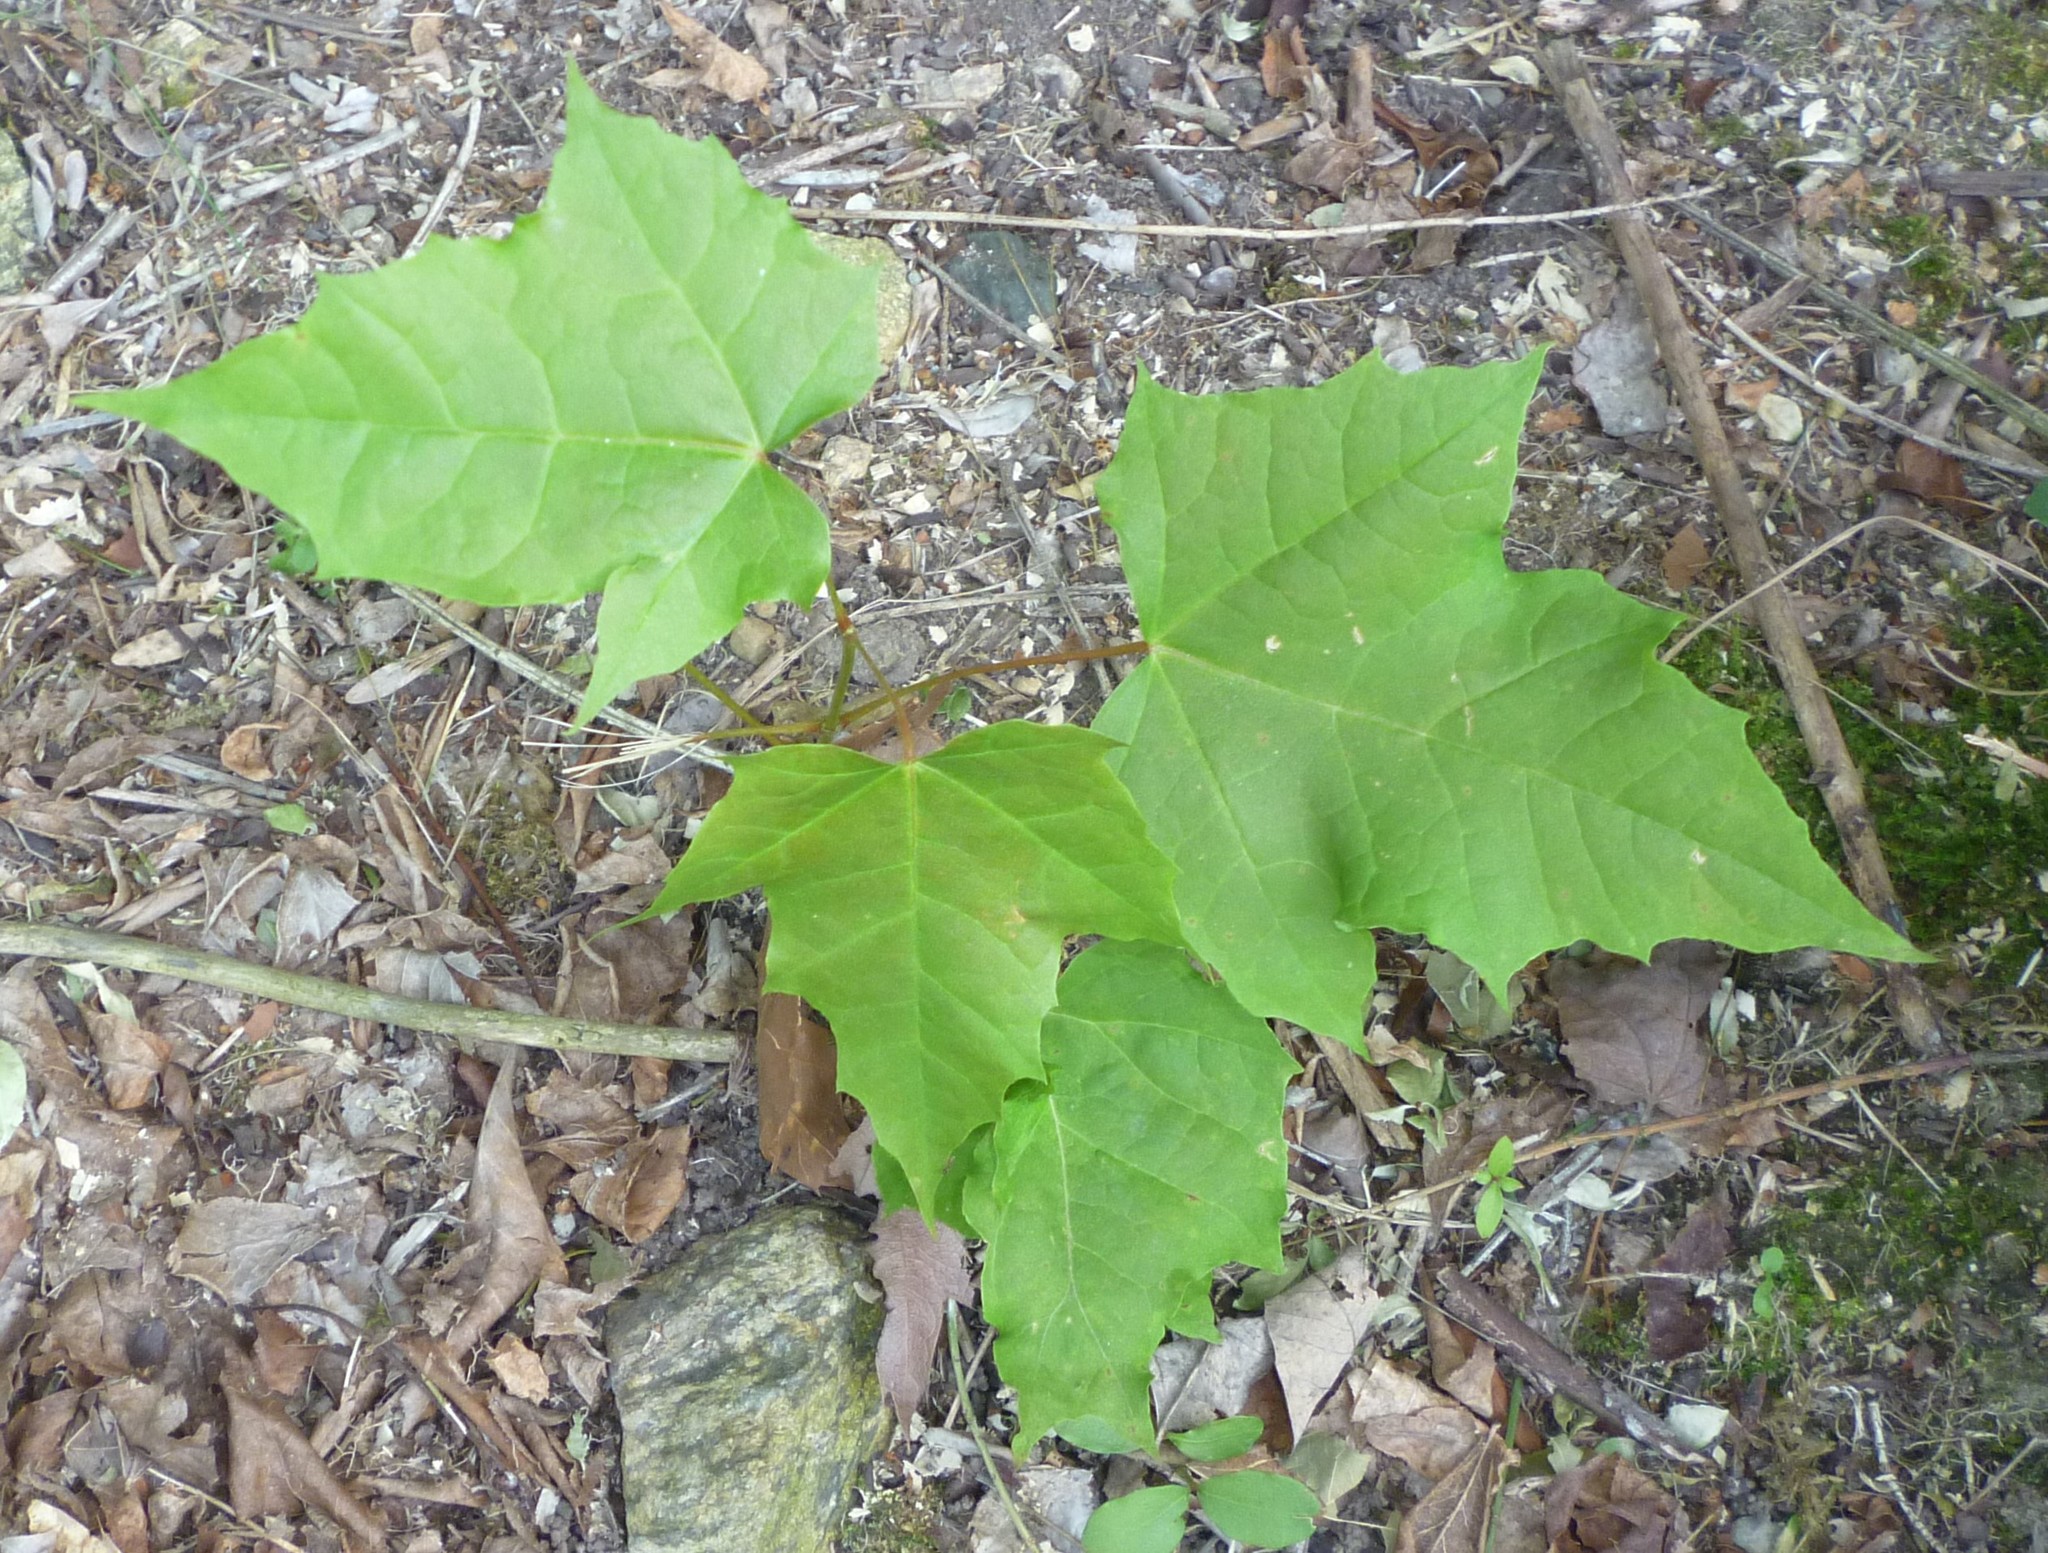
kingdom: Plantae
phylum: Tracheophyta
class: Magnoliopsida
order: Sapindales
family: Sapindaceae
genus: Acer
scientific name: Acer platanoides
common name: Norway maple
